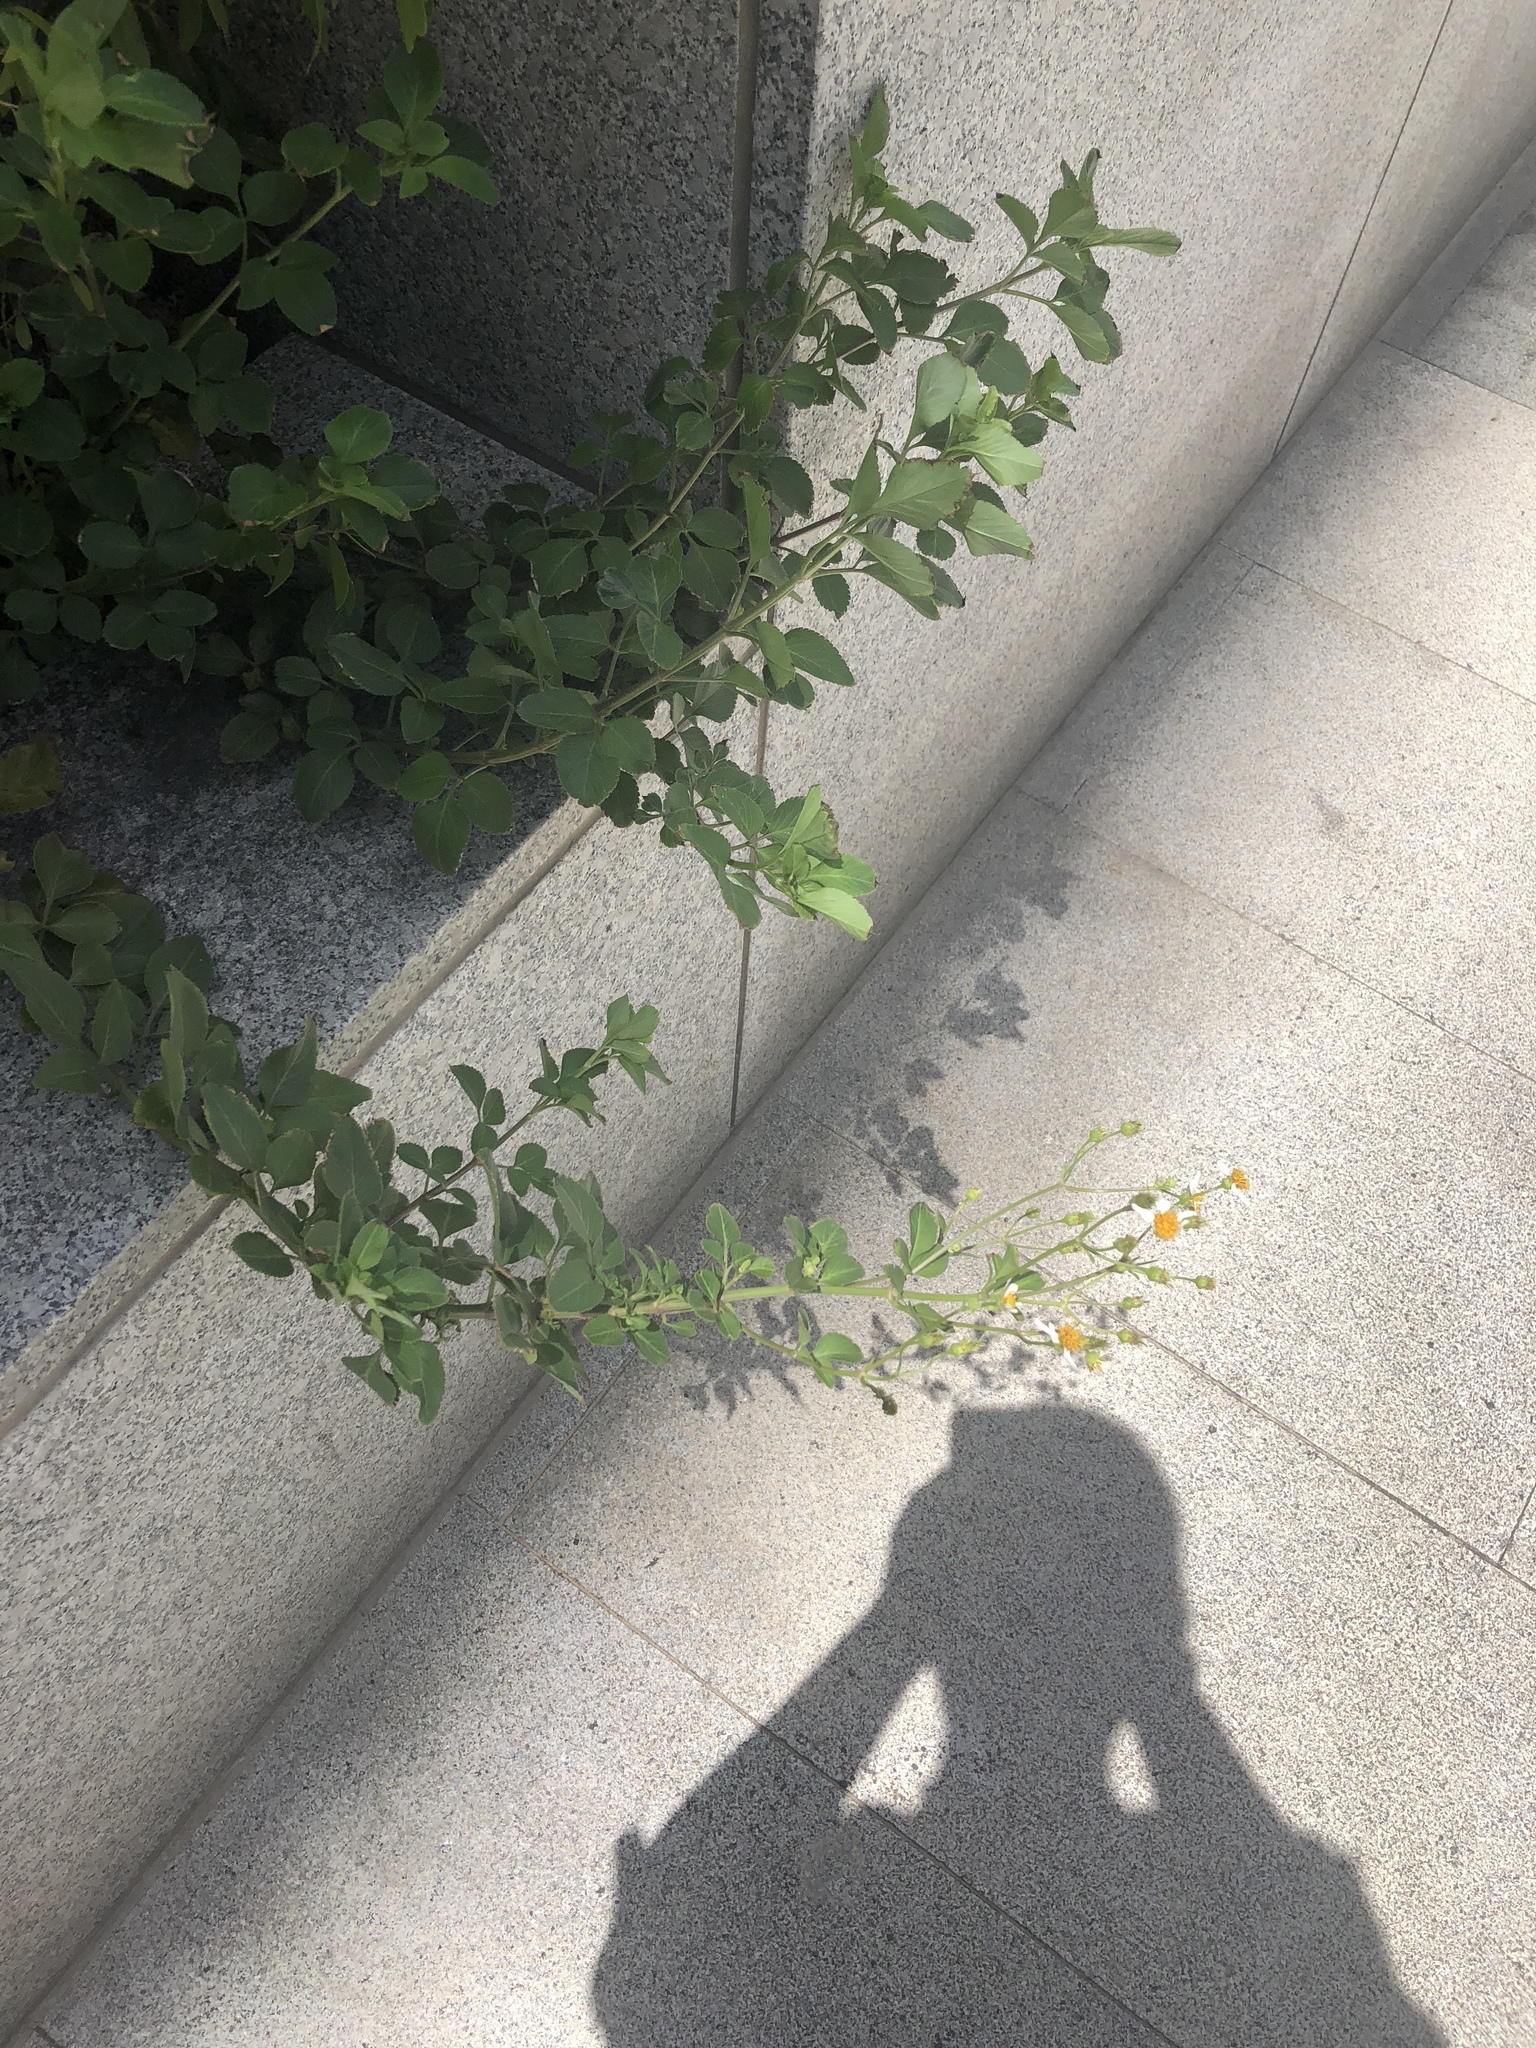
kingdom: Plantae
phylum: Tracheophyta
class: Magnoliopsida
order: Asterales
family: Asteraceae
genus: Bidens
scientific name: Bidens alba
